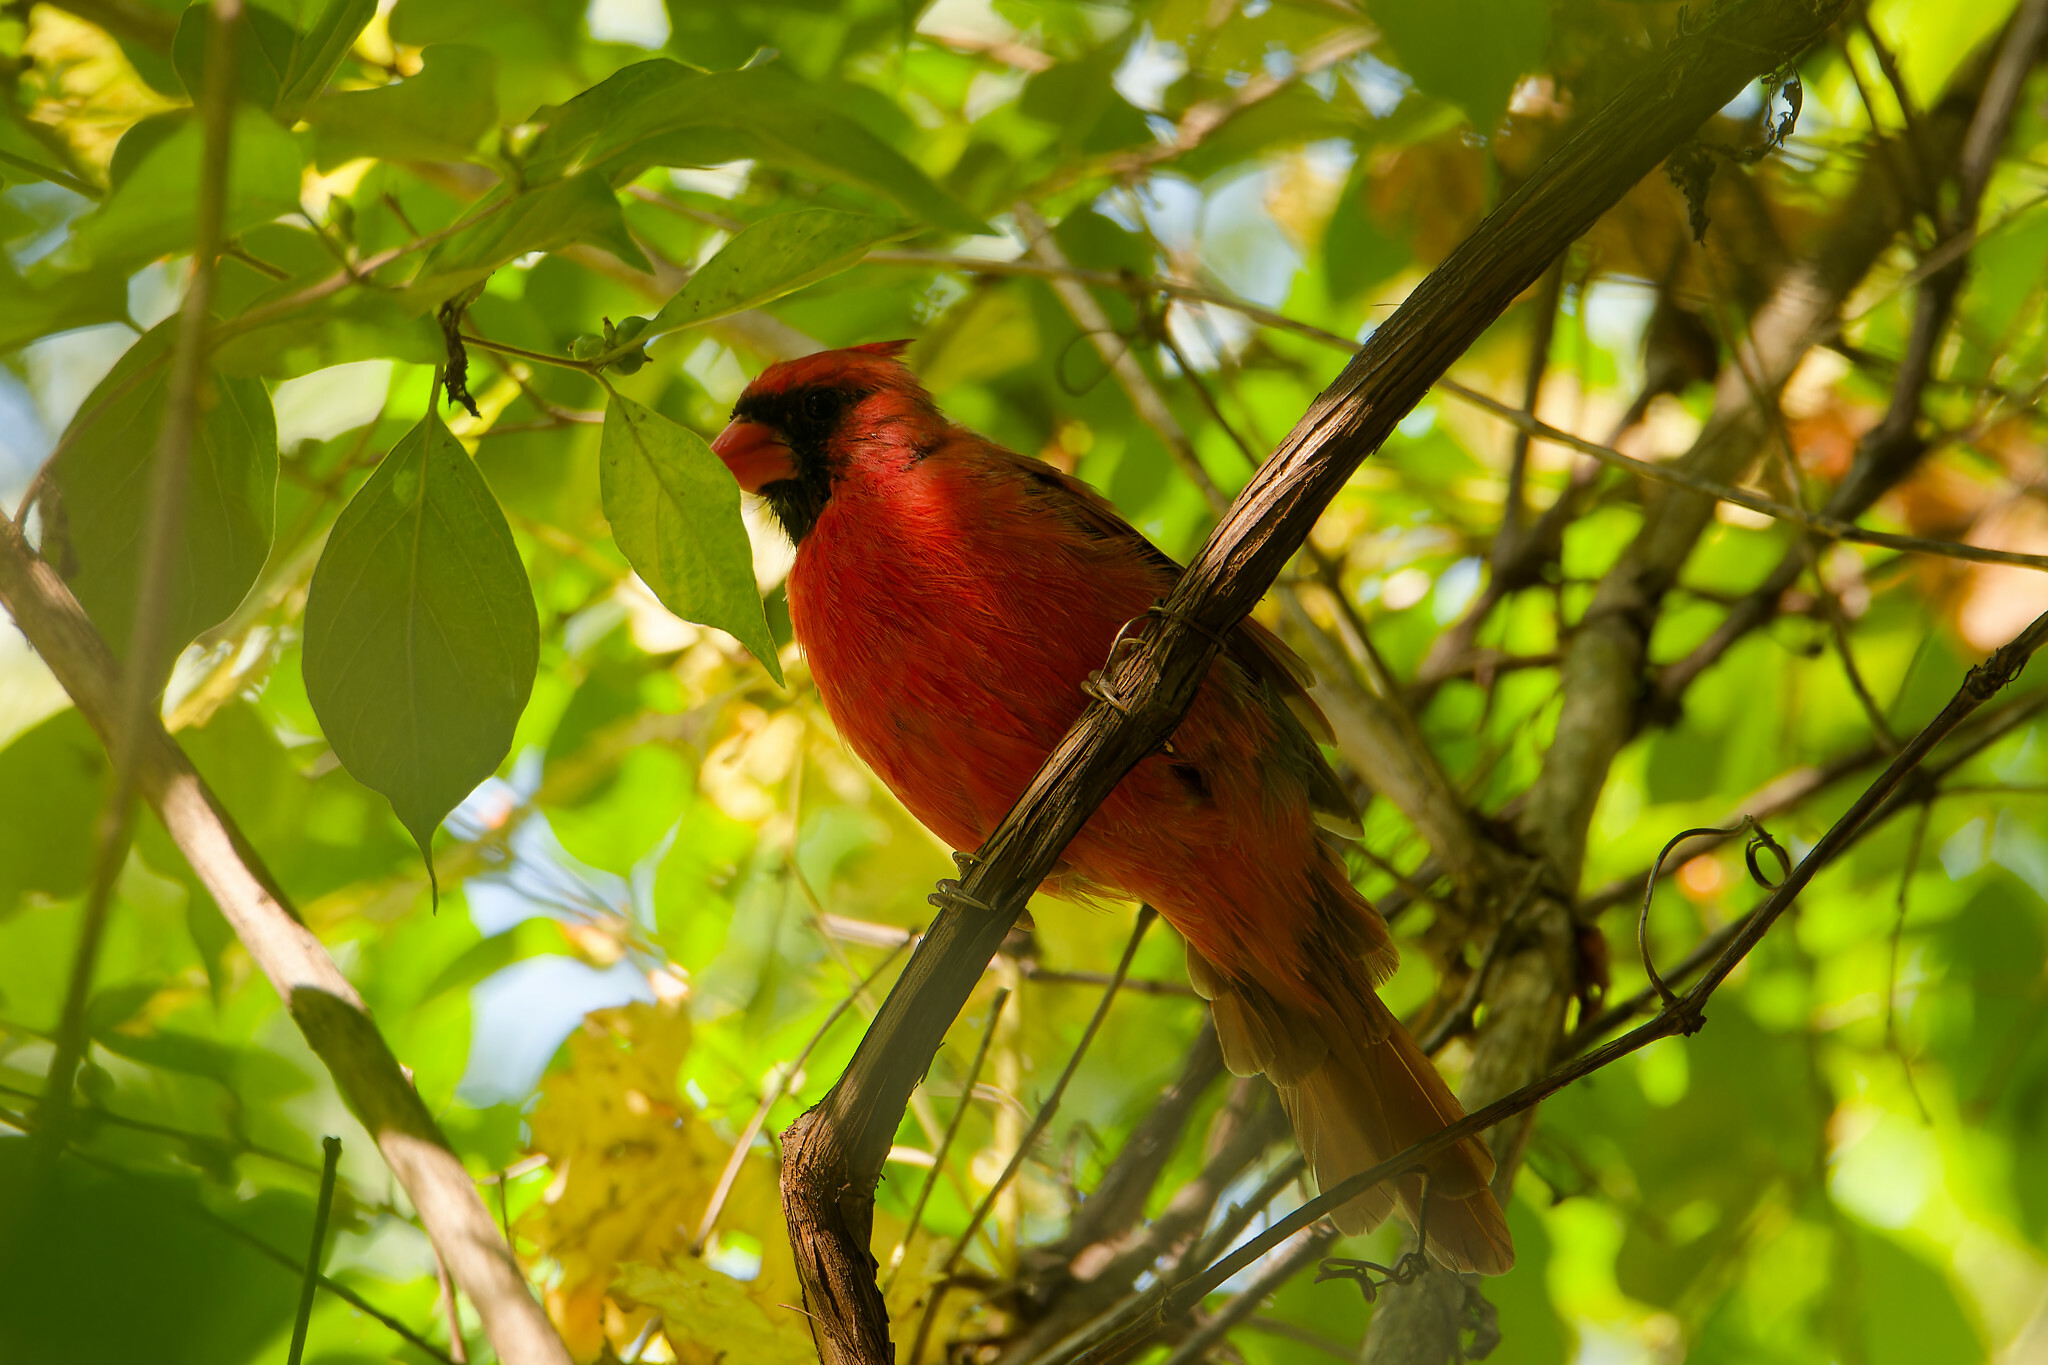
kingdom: Animalia
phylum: Chordata
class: Aves
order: Passeriformes
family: Cardinalidae
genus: Cardinalis
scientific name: Cardinalis cardinalis
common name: Northern cardinal
